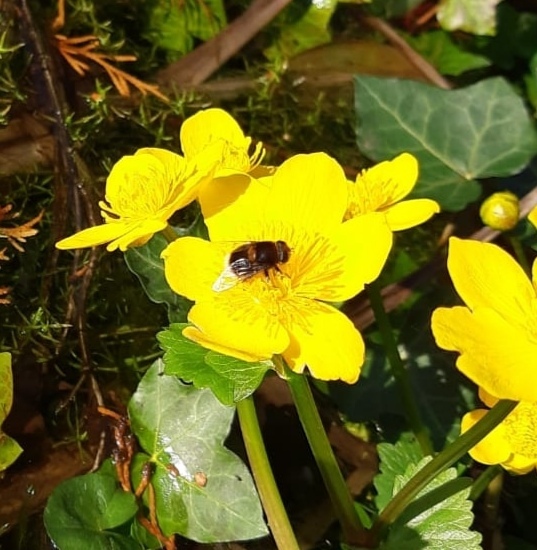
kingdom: Plantae
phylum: Tracheophyta
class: Magnoliopsida
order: Ranunculales
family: Ranunculaceae
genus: Caltha
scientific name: Caltha palustris
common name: Marsh marigold
